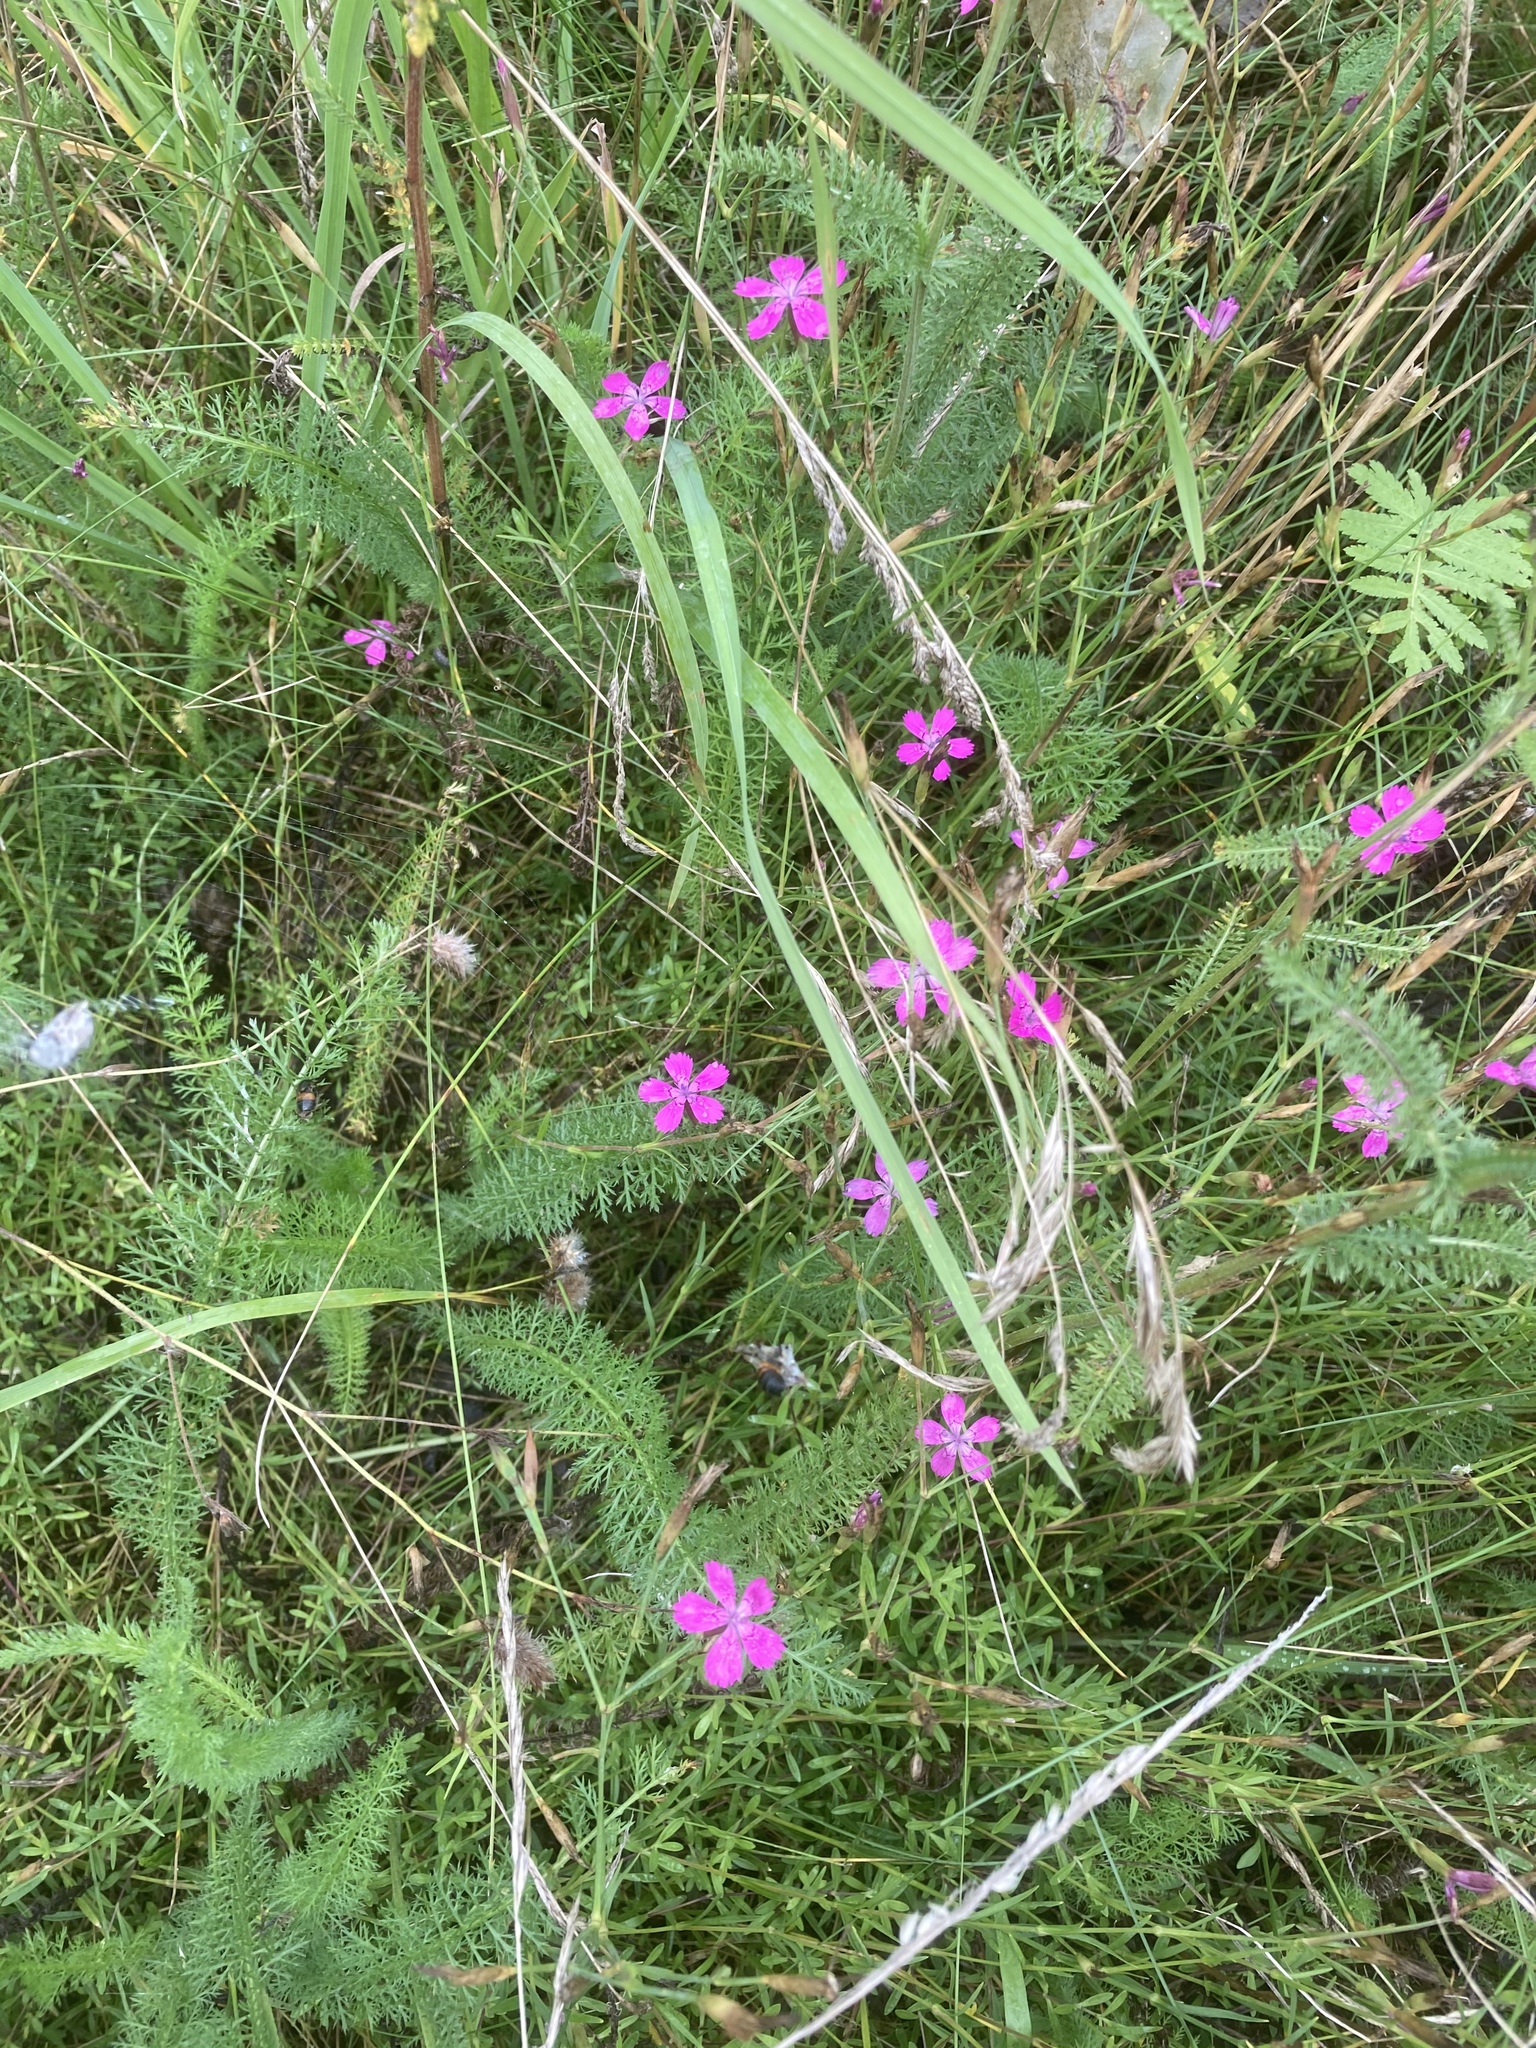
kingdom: Plantae
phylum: Tracheophyta
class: Magnoliopsida
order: Caryophyllales
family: Caryophyllaceae
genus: Dianthus
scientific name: Dianthus deltoides
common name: Maiden pink
